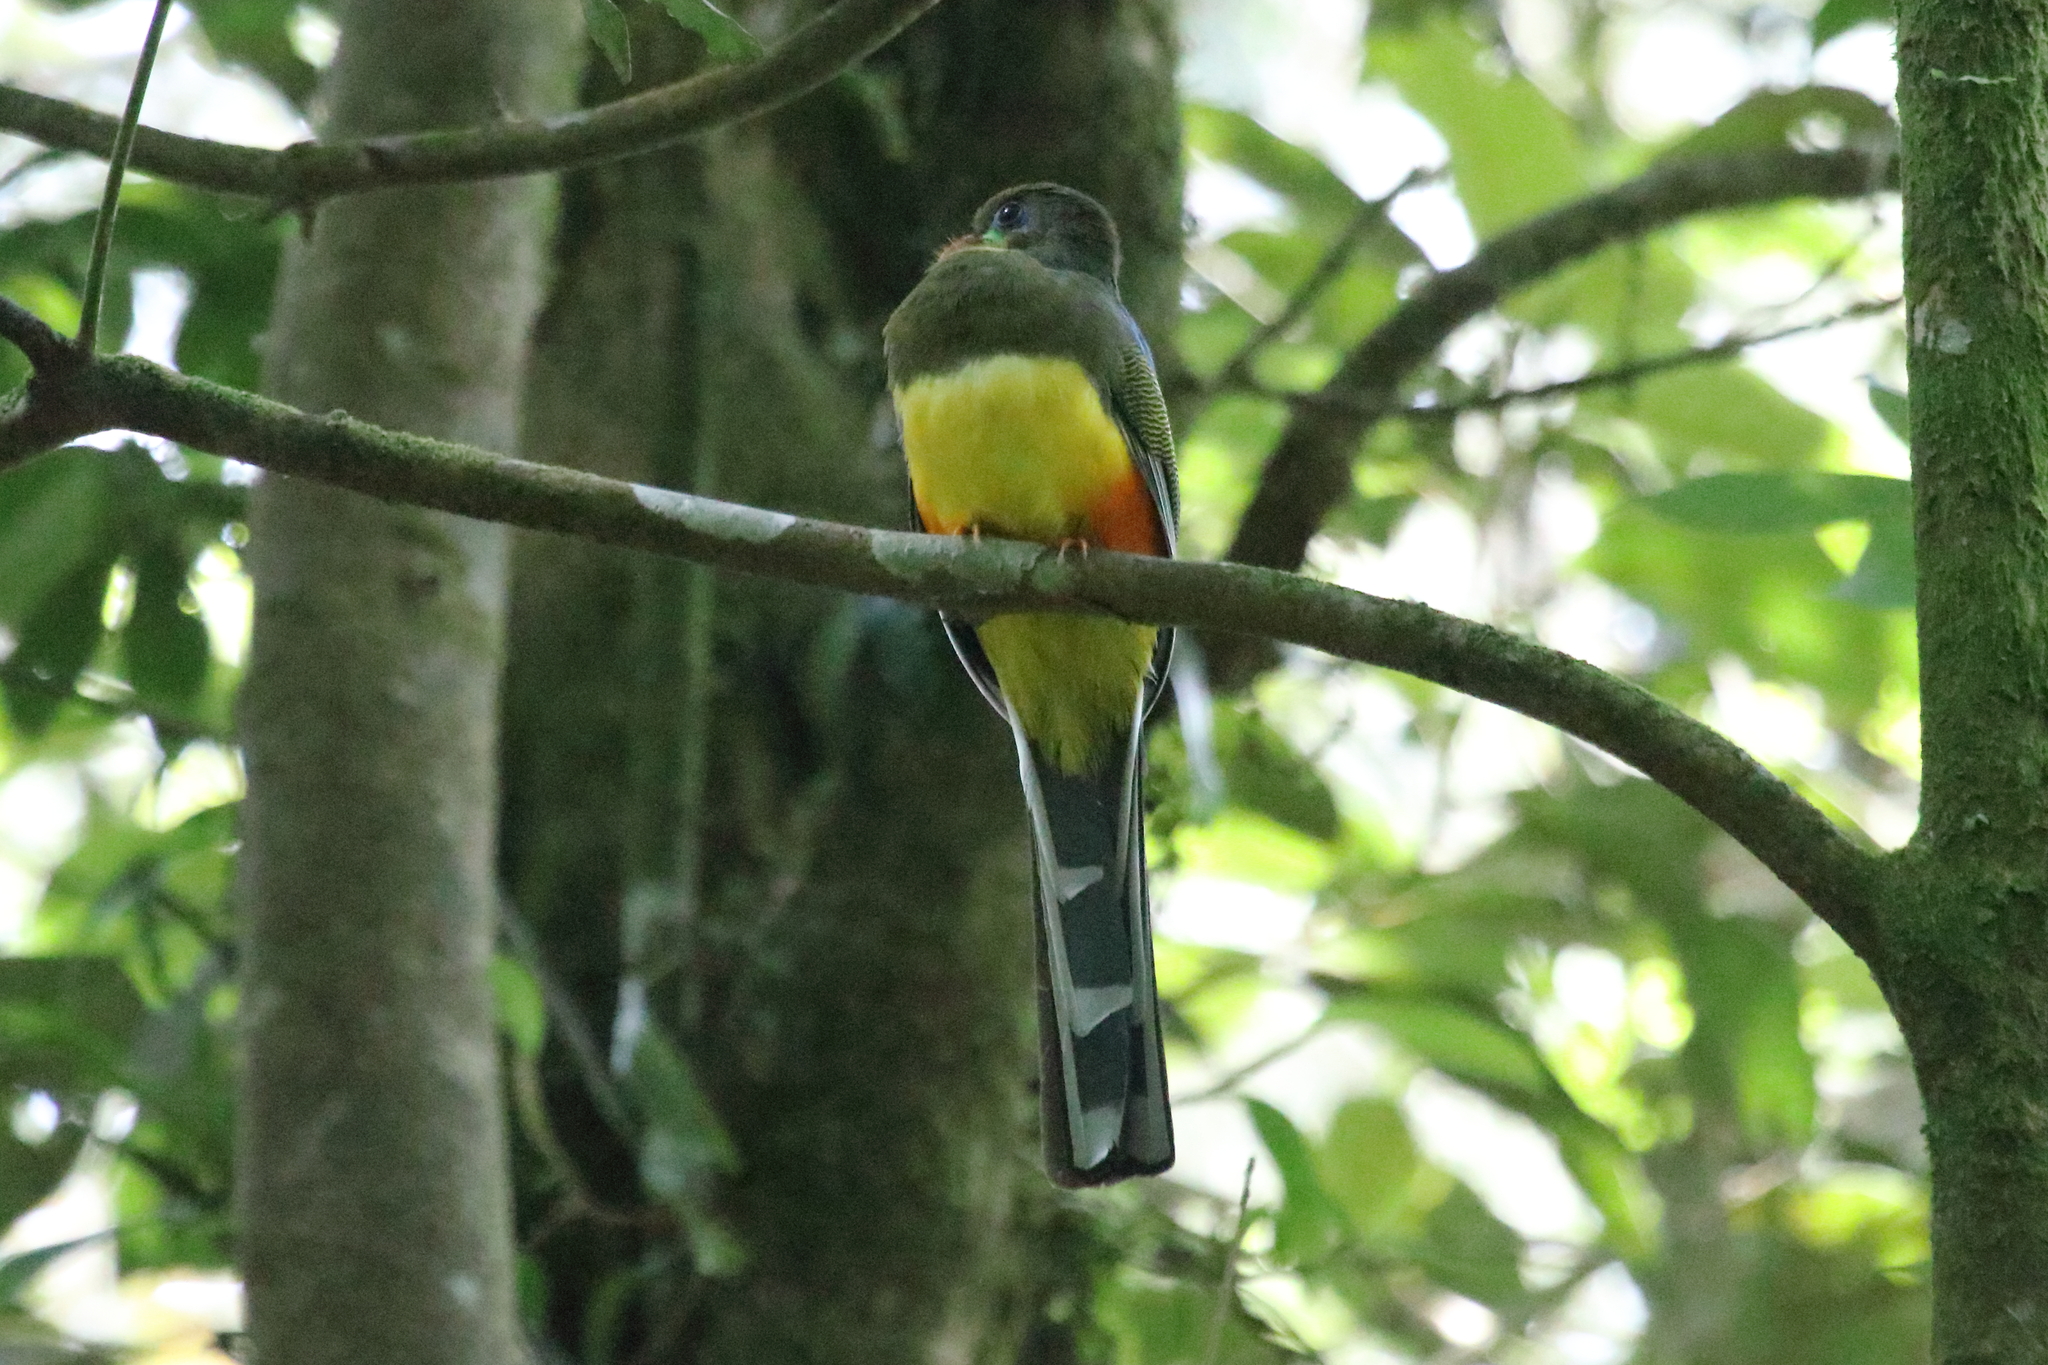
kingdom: Animalia
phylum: Chordata
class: Aves
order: Trogoniformes
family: Trogonidae
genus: Apalharpactes
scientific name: Apalharpactes reinwardtii
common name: Javan trogon
